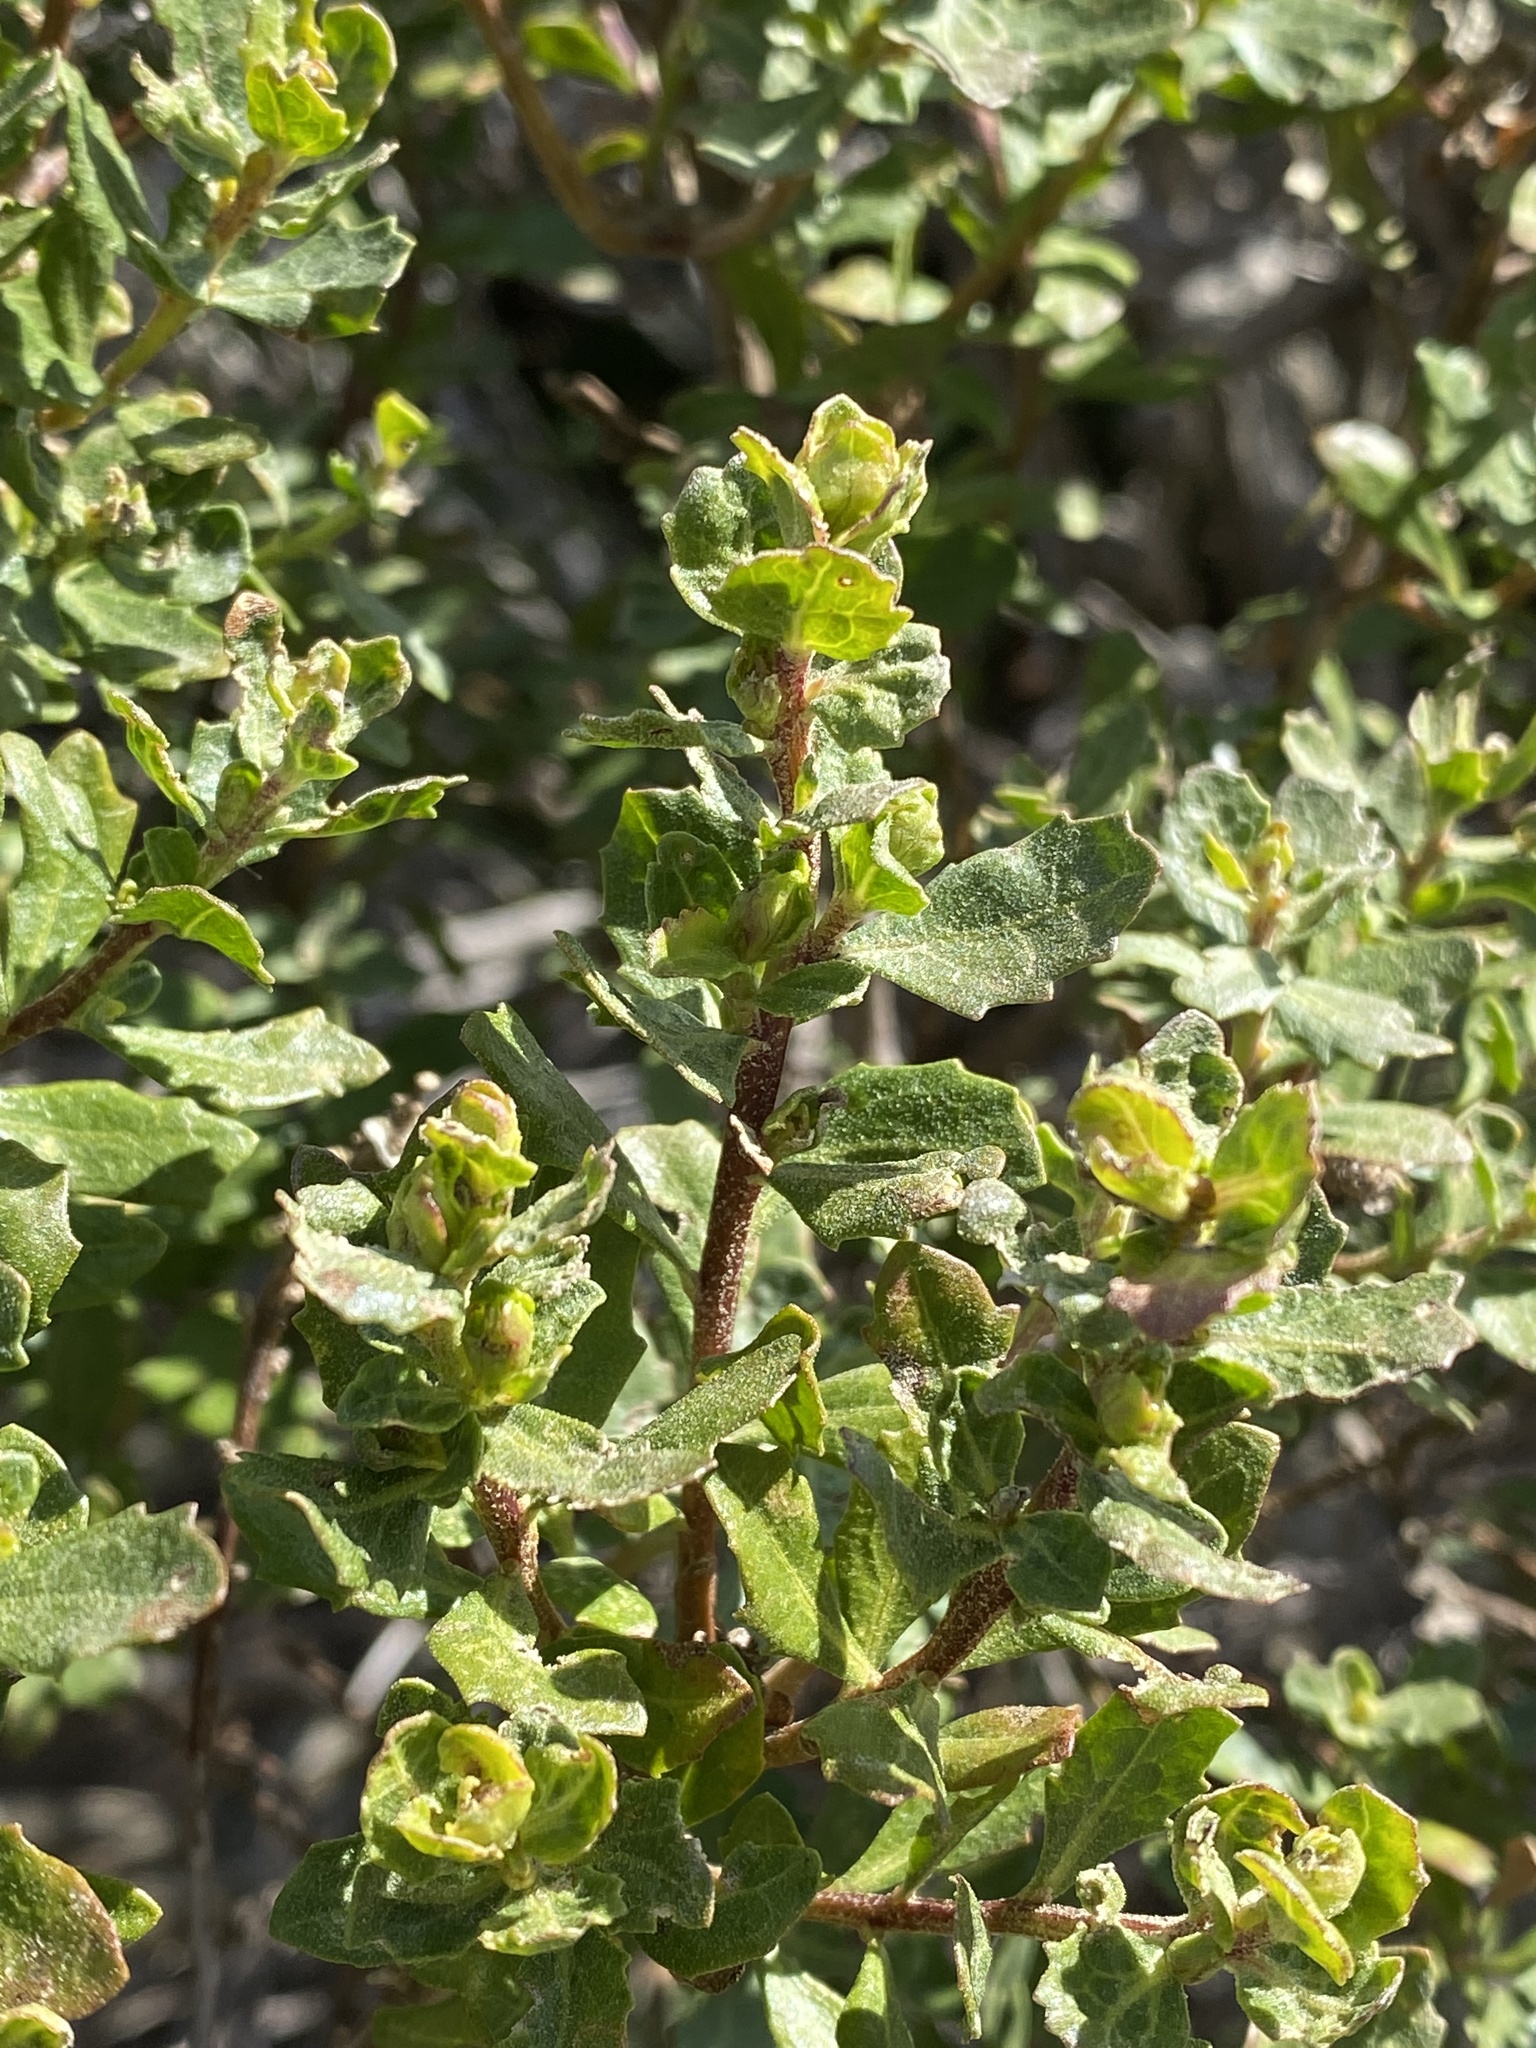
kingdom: Plantae
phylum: Tracheophyta
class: Magnoliopsida
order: Asterales
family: Asteraceae
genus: Baccharis
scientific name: Baccharis pilularis
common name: Coyotebrush
